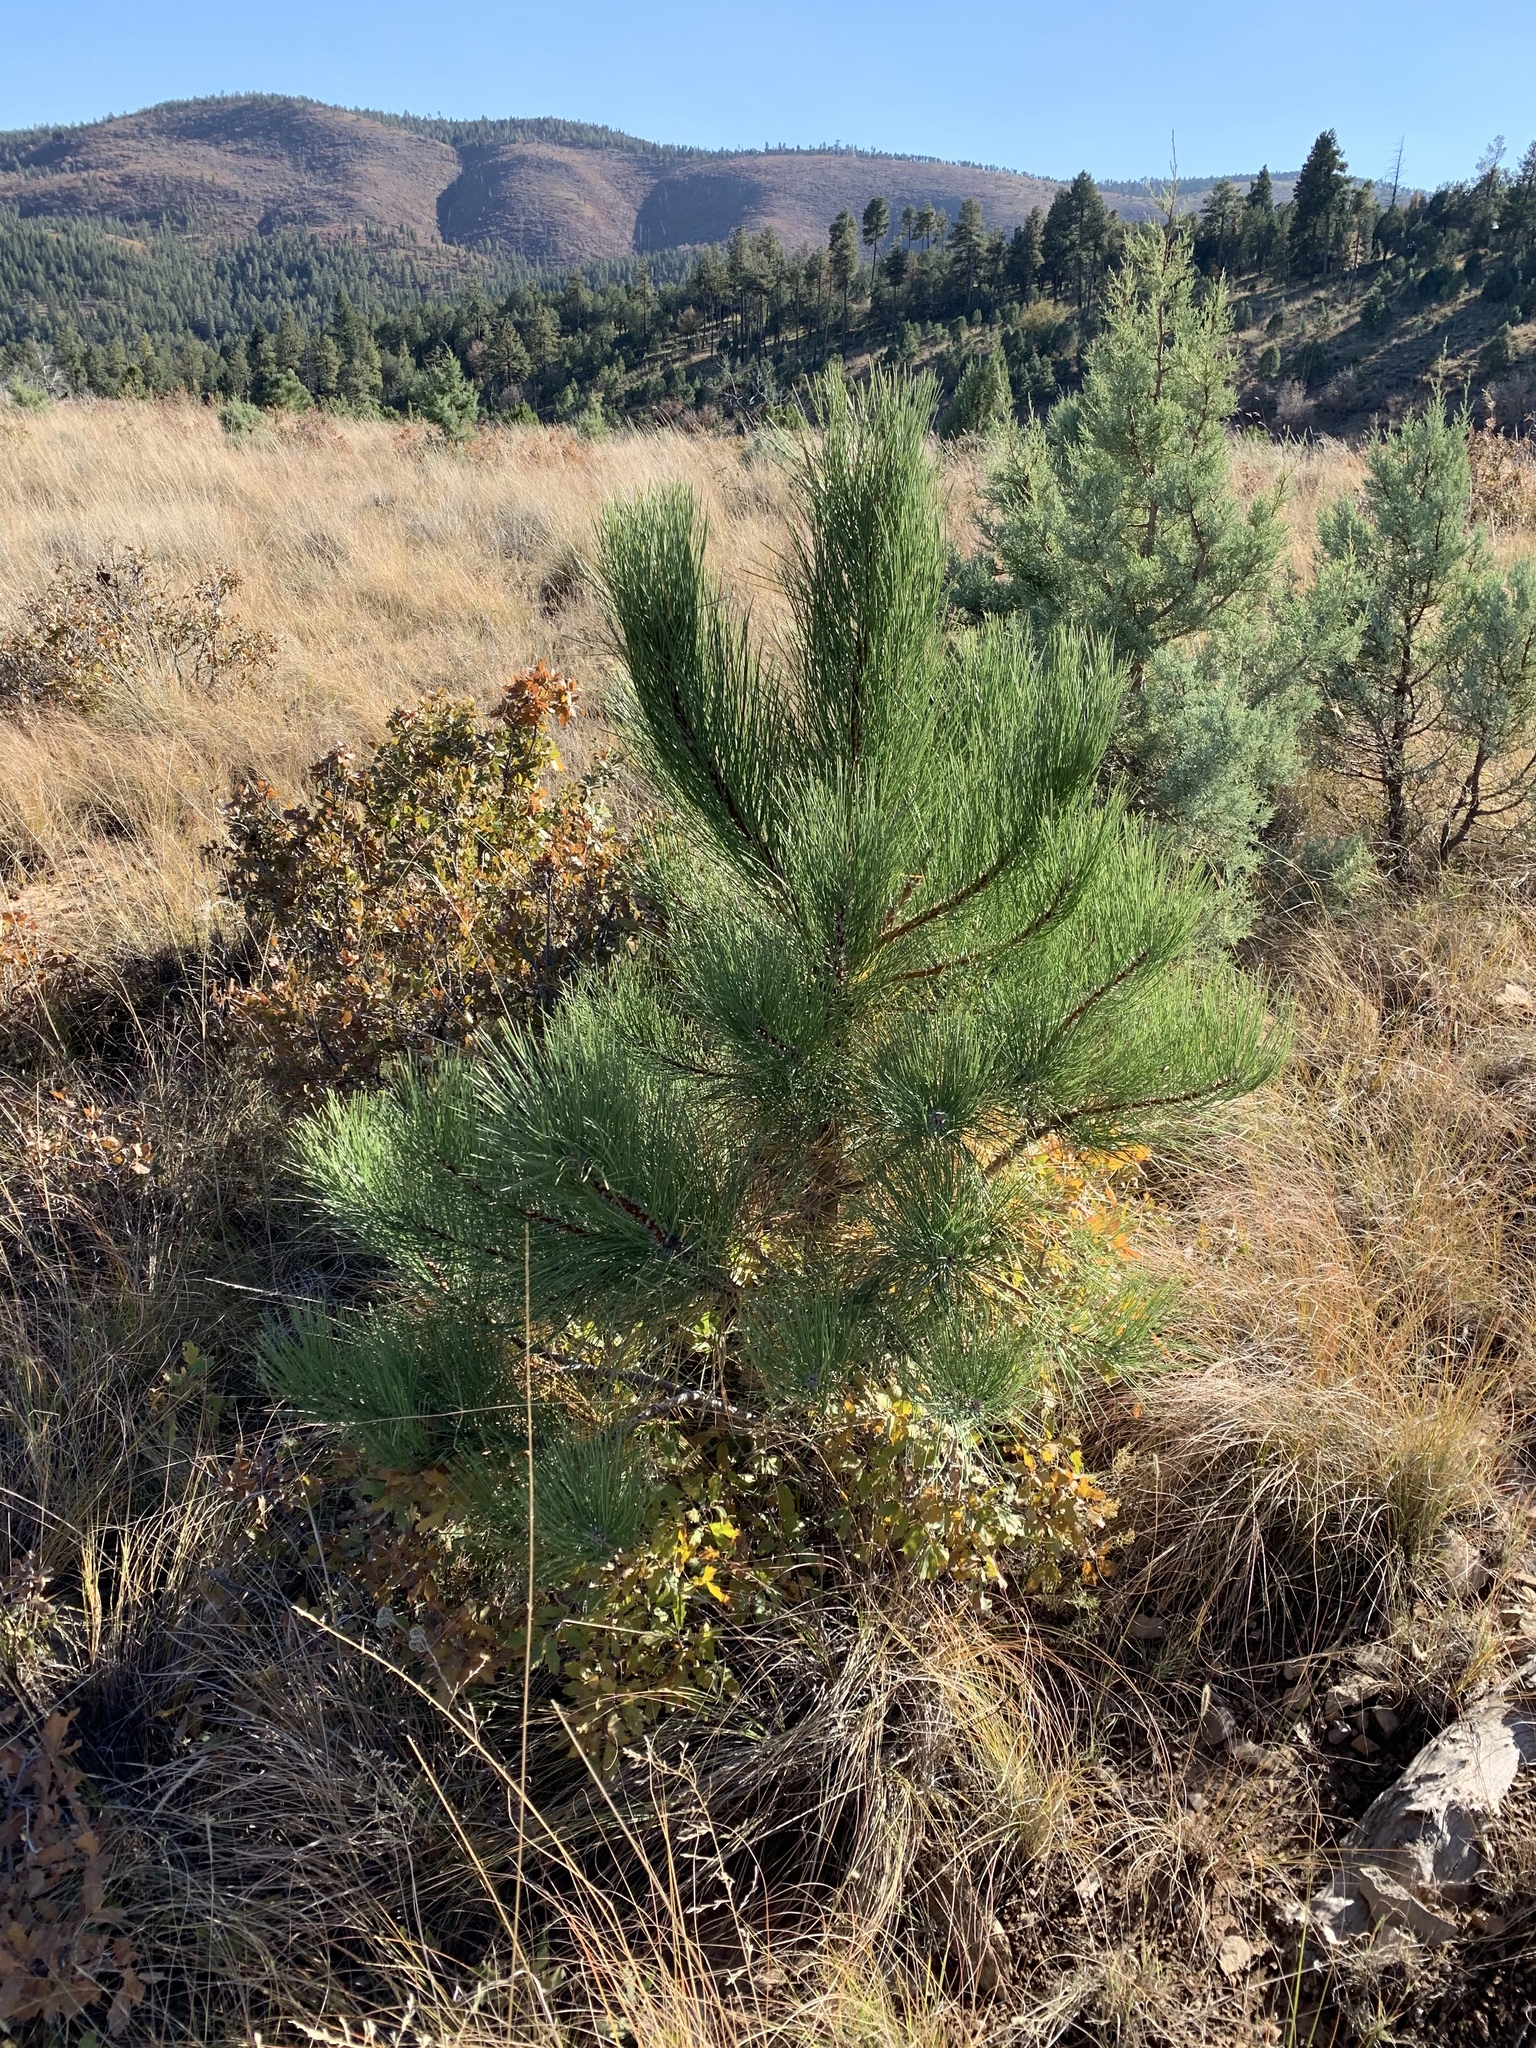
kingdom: Plantae
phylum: Tracheophyta
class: Pinopsida
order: Pinales
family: Pinaceae
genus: Pinus
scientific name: Pinus ponderosa
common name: Western yellow-pine
